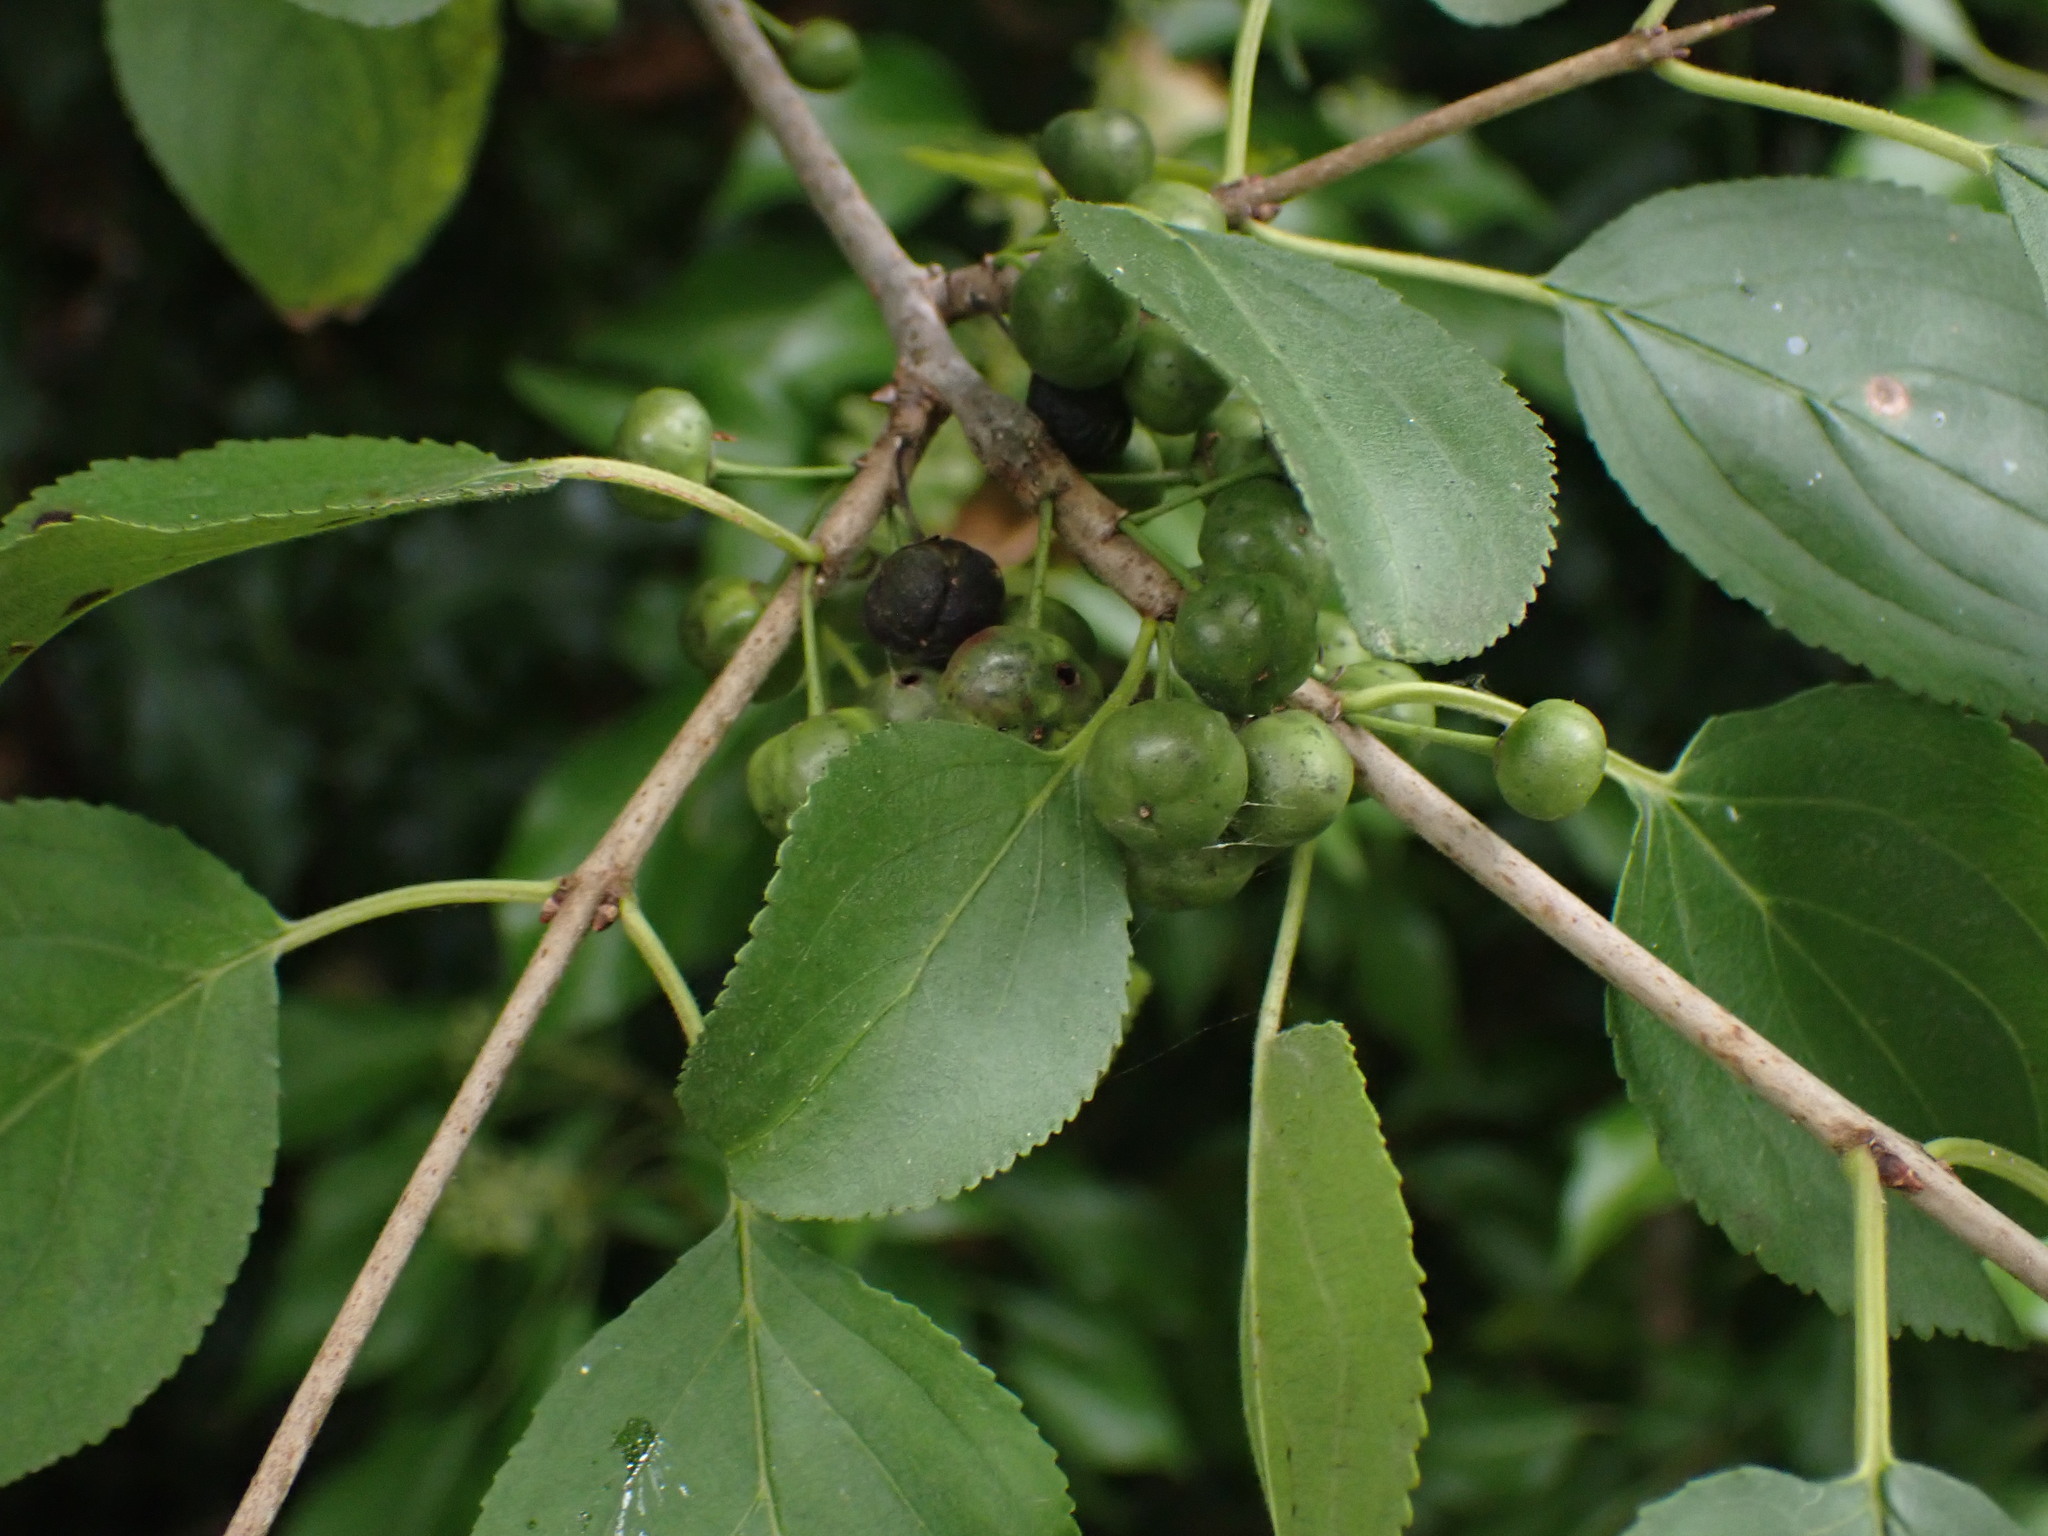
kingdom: Plantae
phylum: Tracheophyta
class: Magnoliopsida
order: Rosales
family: Rhamnaceae
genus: Rhamnus
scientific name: Rhamnus cathartica
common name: Common buckthorn
